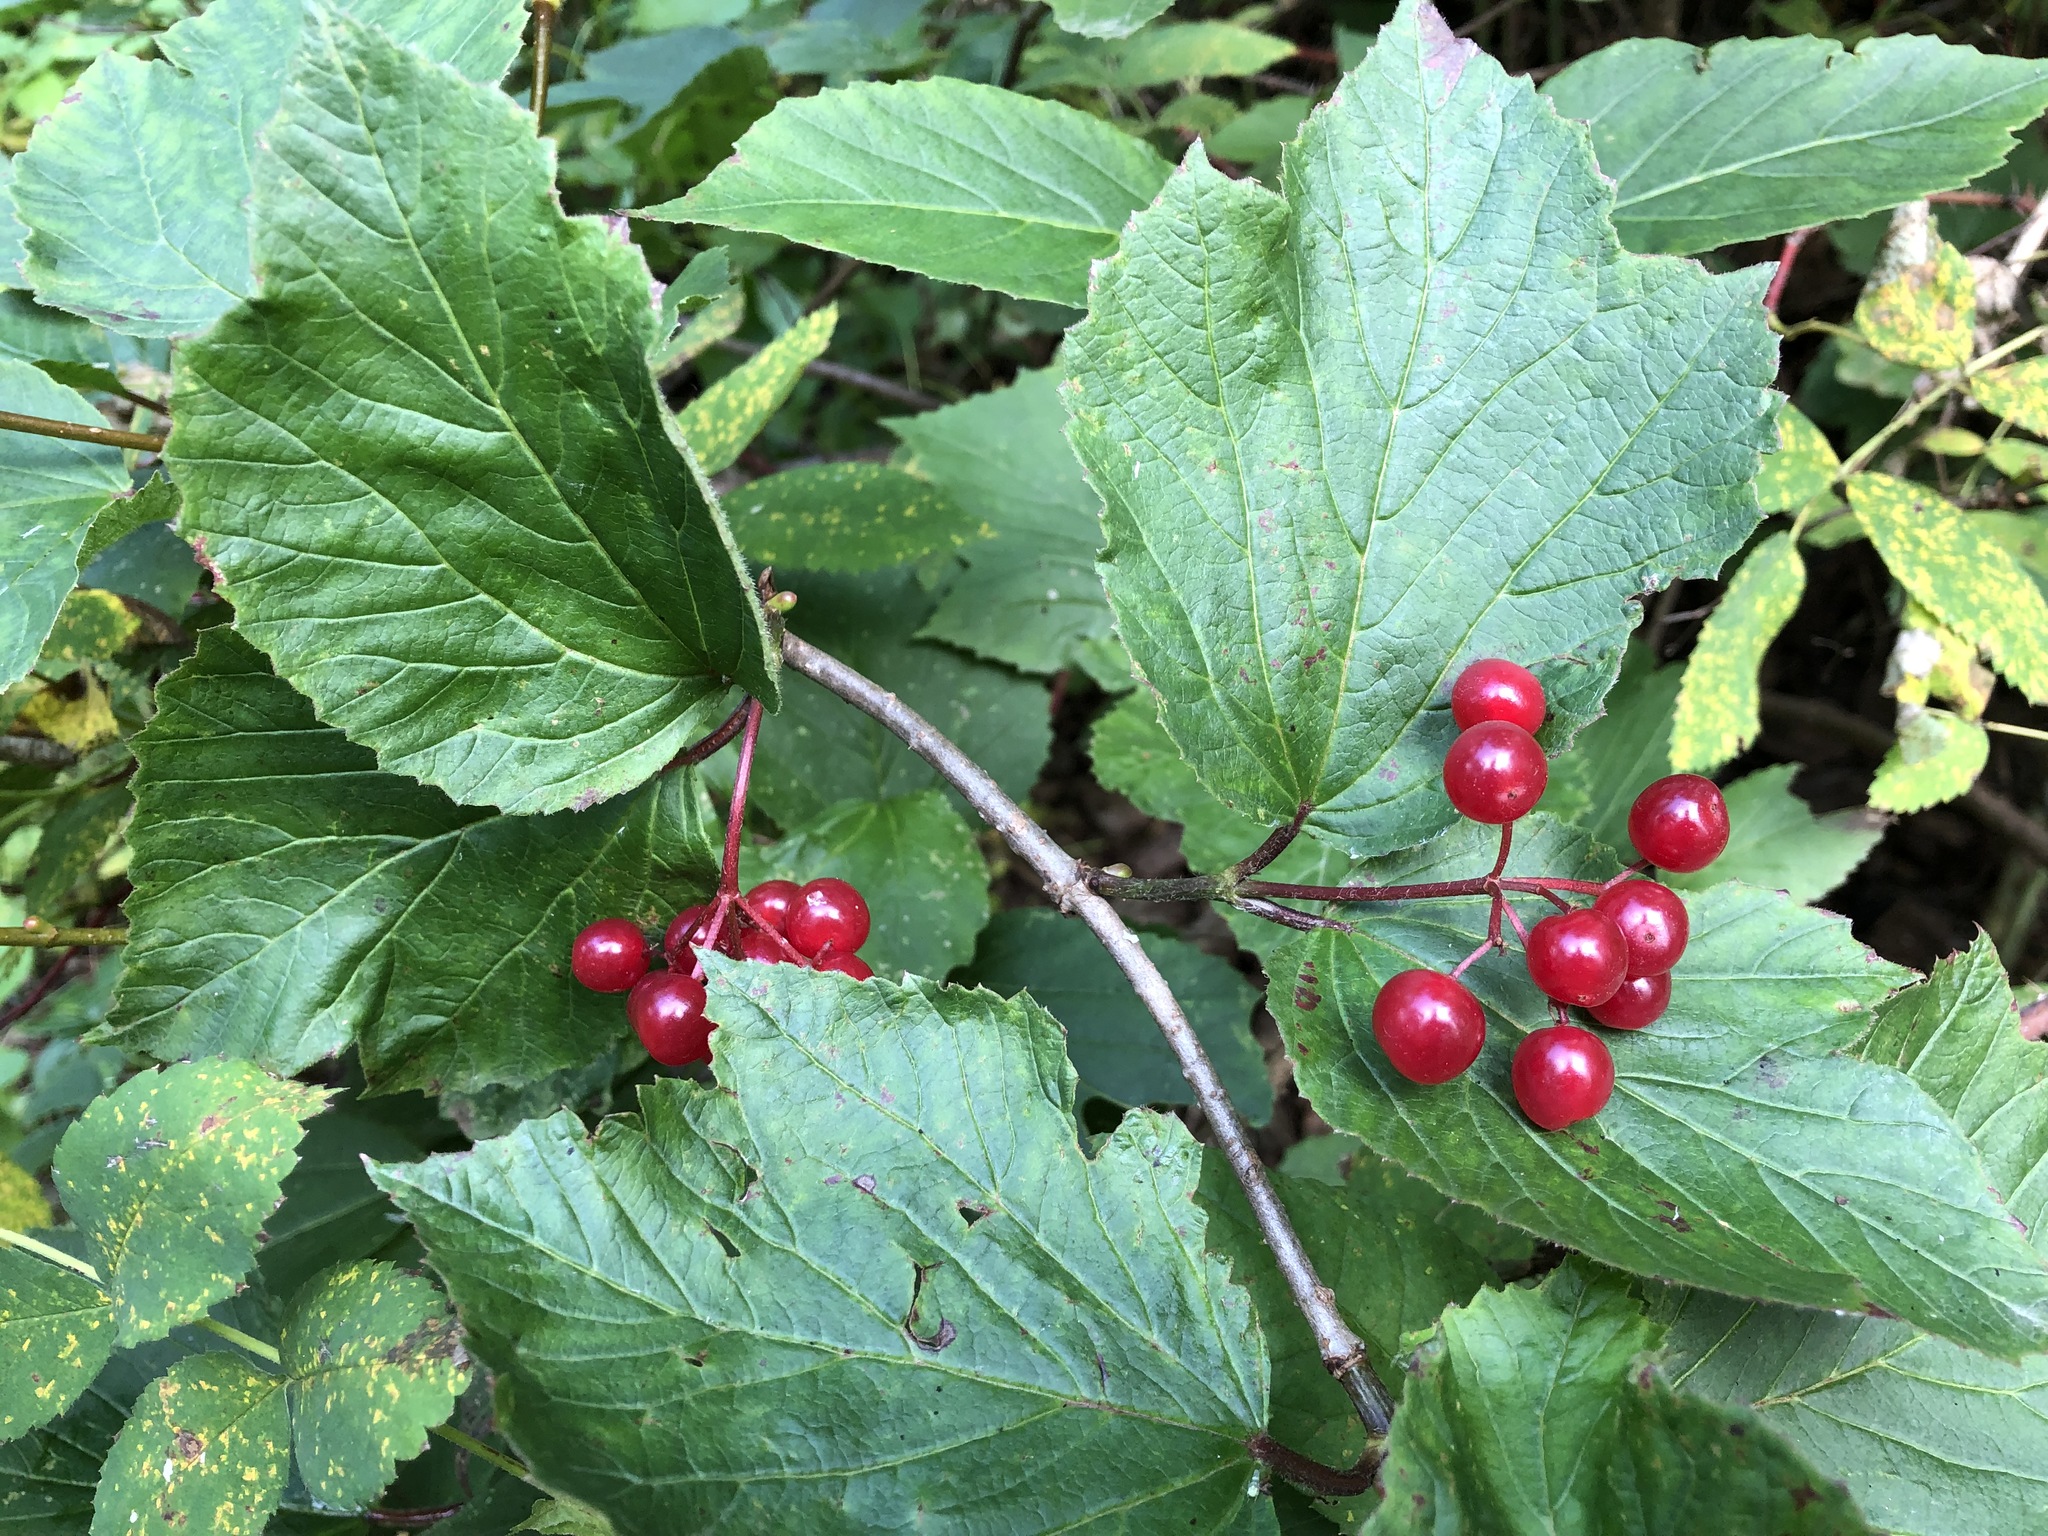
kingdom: Plantae
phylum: Tracheophyta
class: Magnoliopsida
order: Dipsacales
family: Viburnaceae
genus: Viburnum
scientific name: Viburnum edule
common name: Mooseberry
